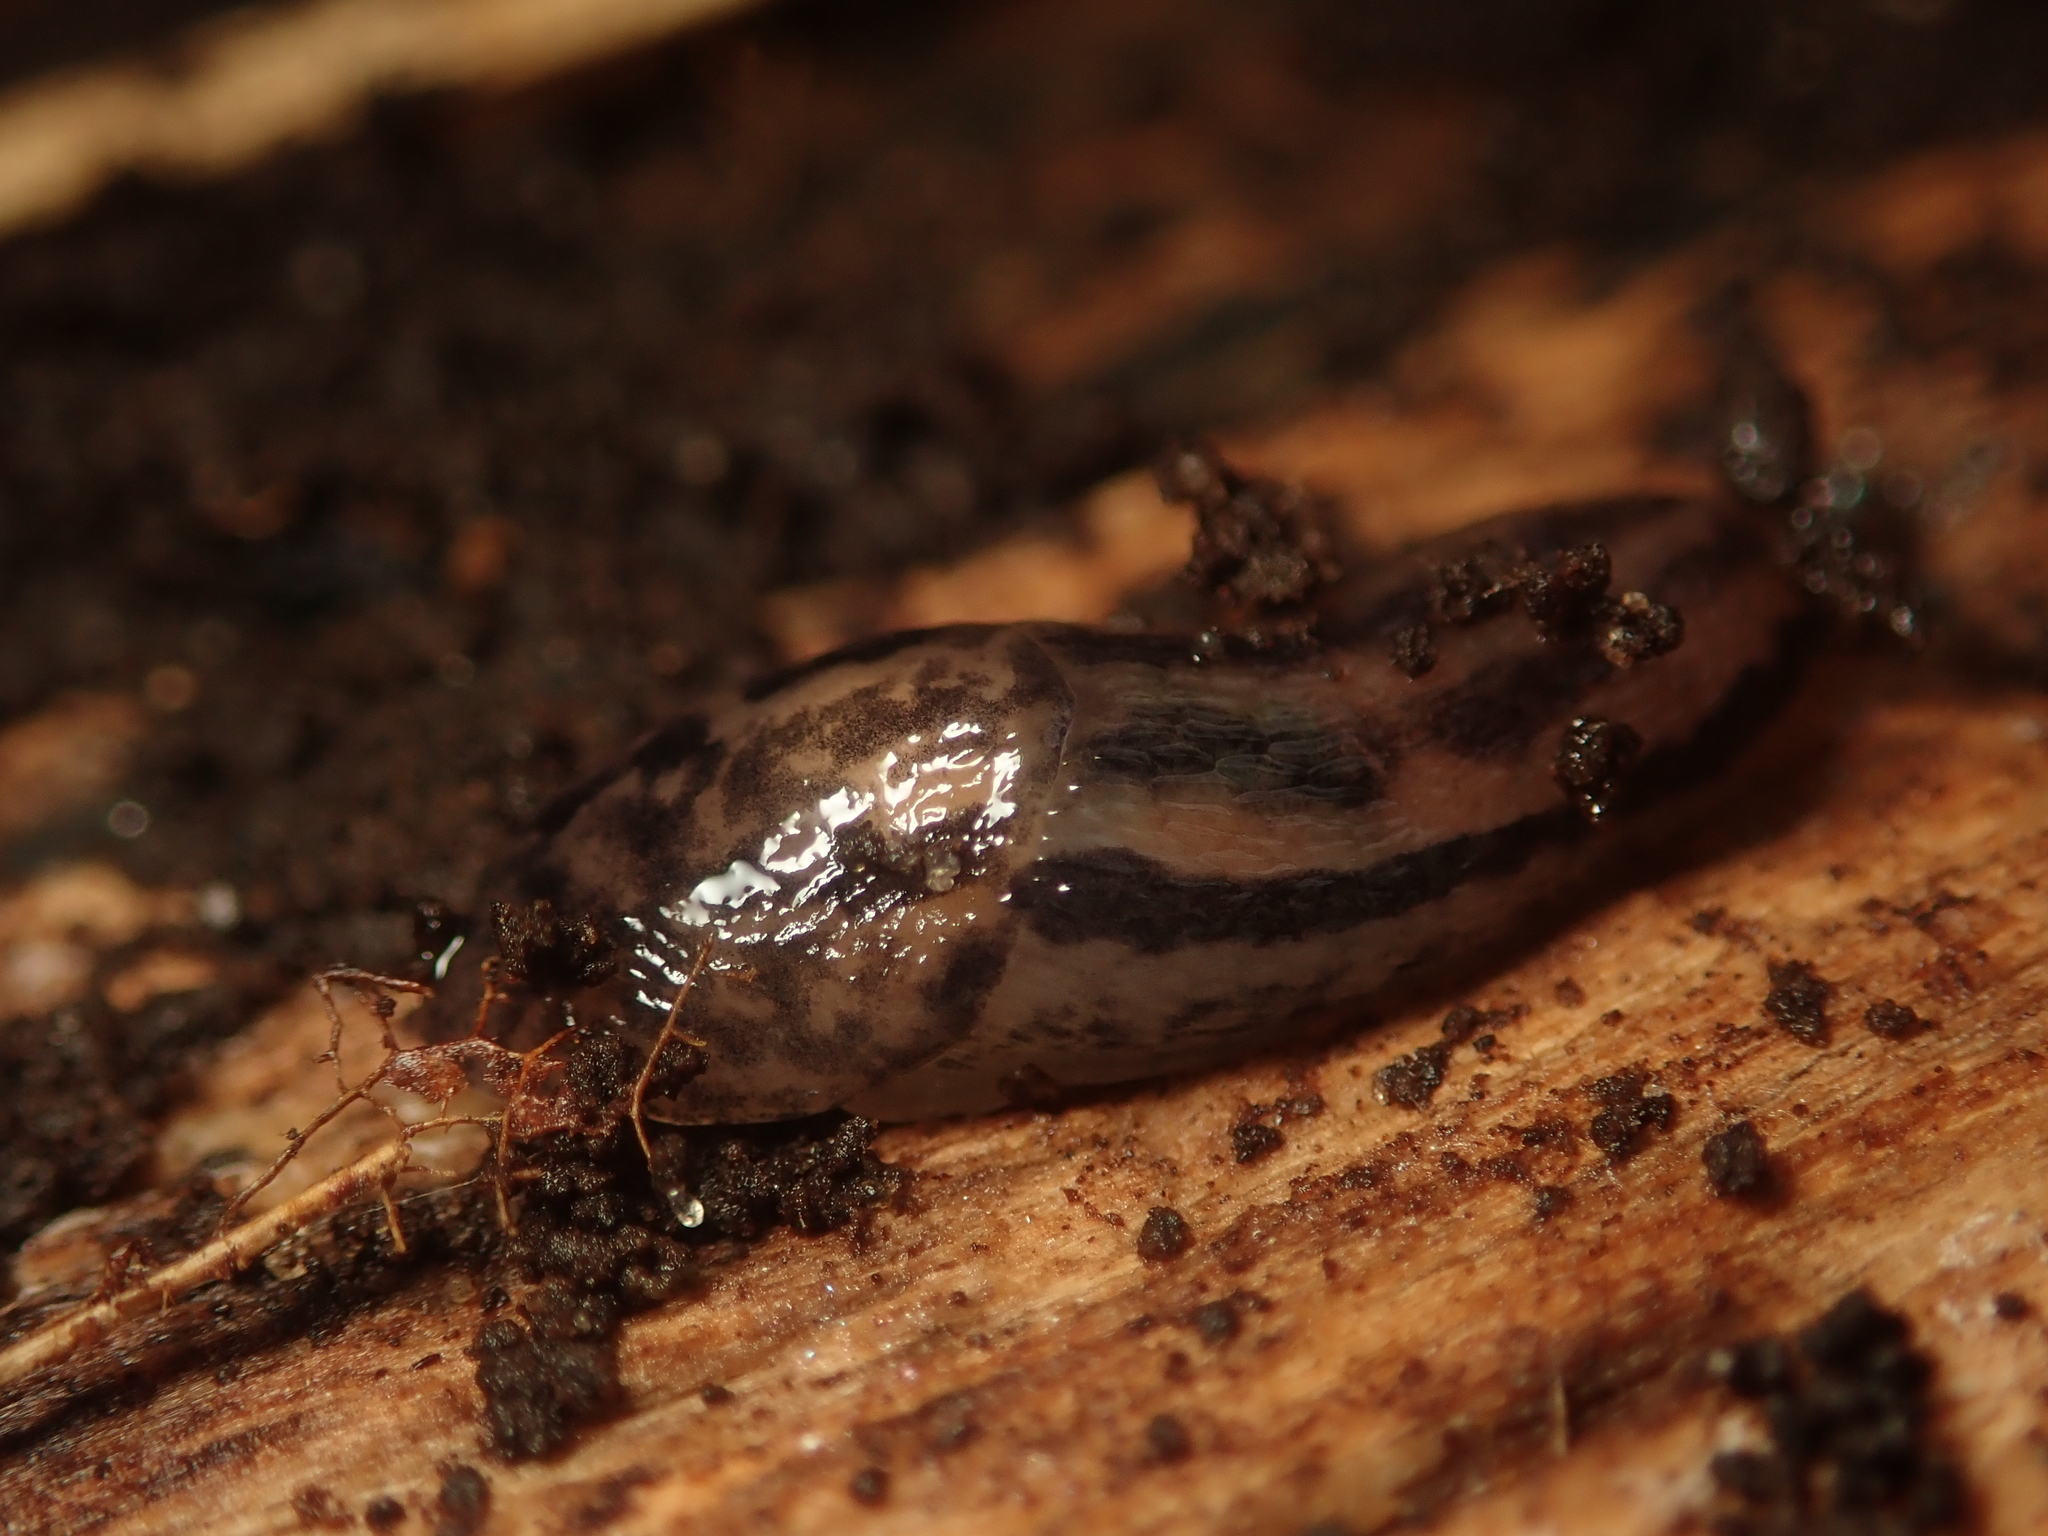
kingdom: Animalia
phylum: Mollusca
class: Gastropoda
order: Stylommatophora
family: Limacidae
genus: Limax
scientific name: Limax maximus
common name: Great grey slug
